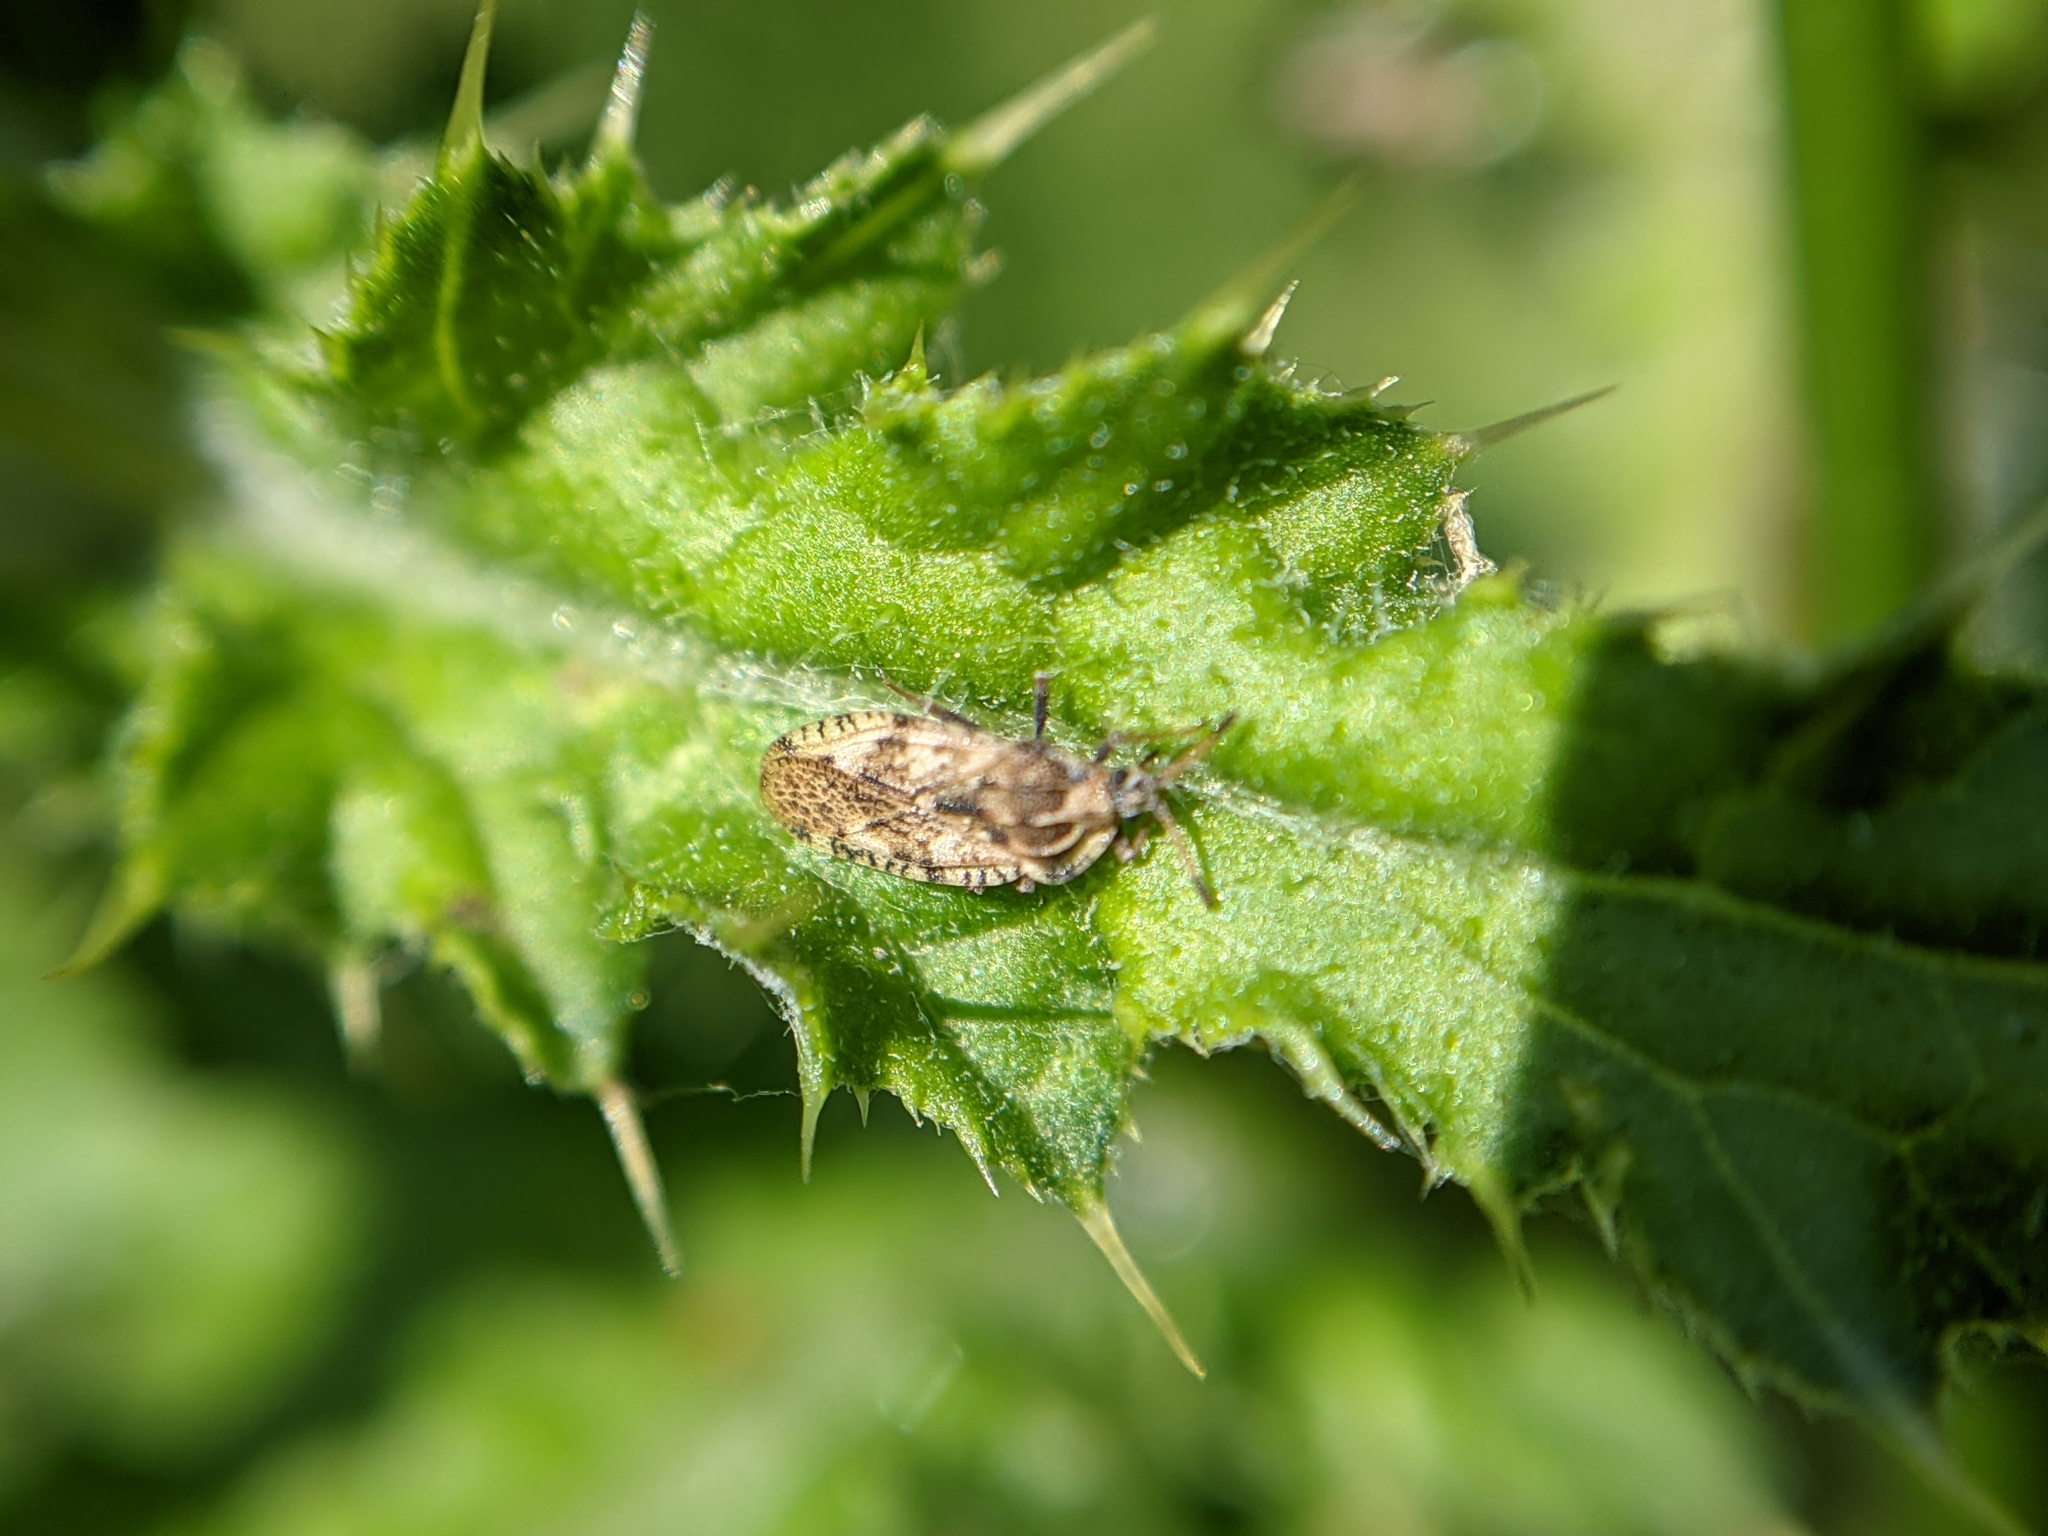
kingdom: Animalia
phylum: Arthropoda
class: Insecta
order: Hemiptera
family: Tingidae
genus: Tingis
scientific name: Tingis cardui
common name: Spear thistle lacebug
